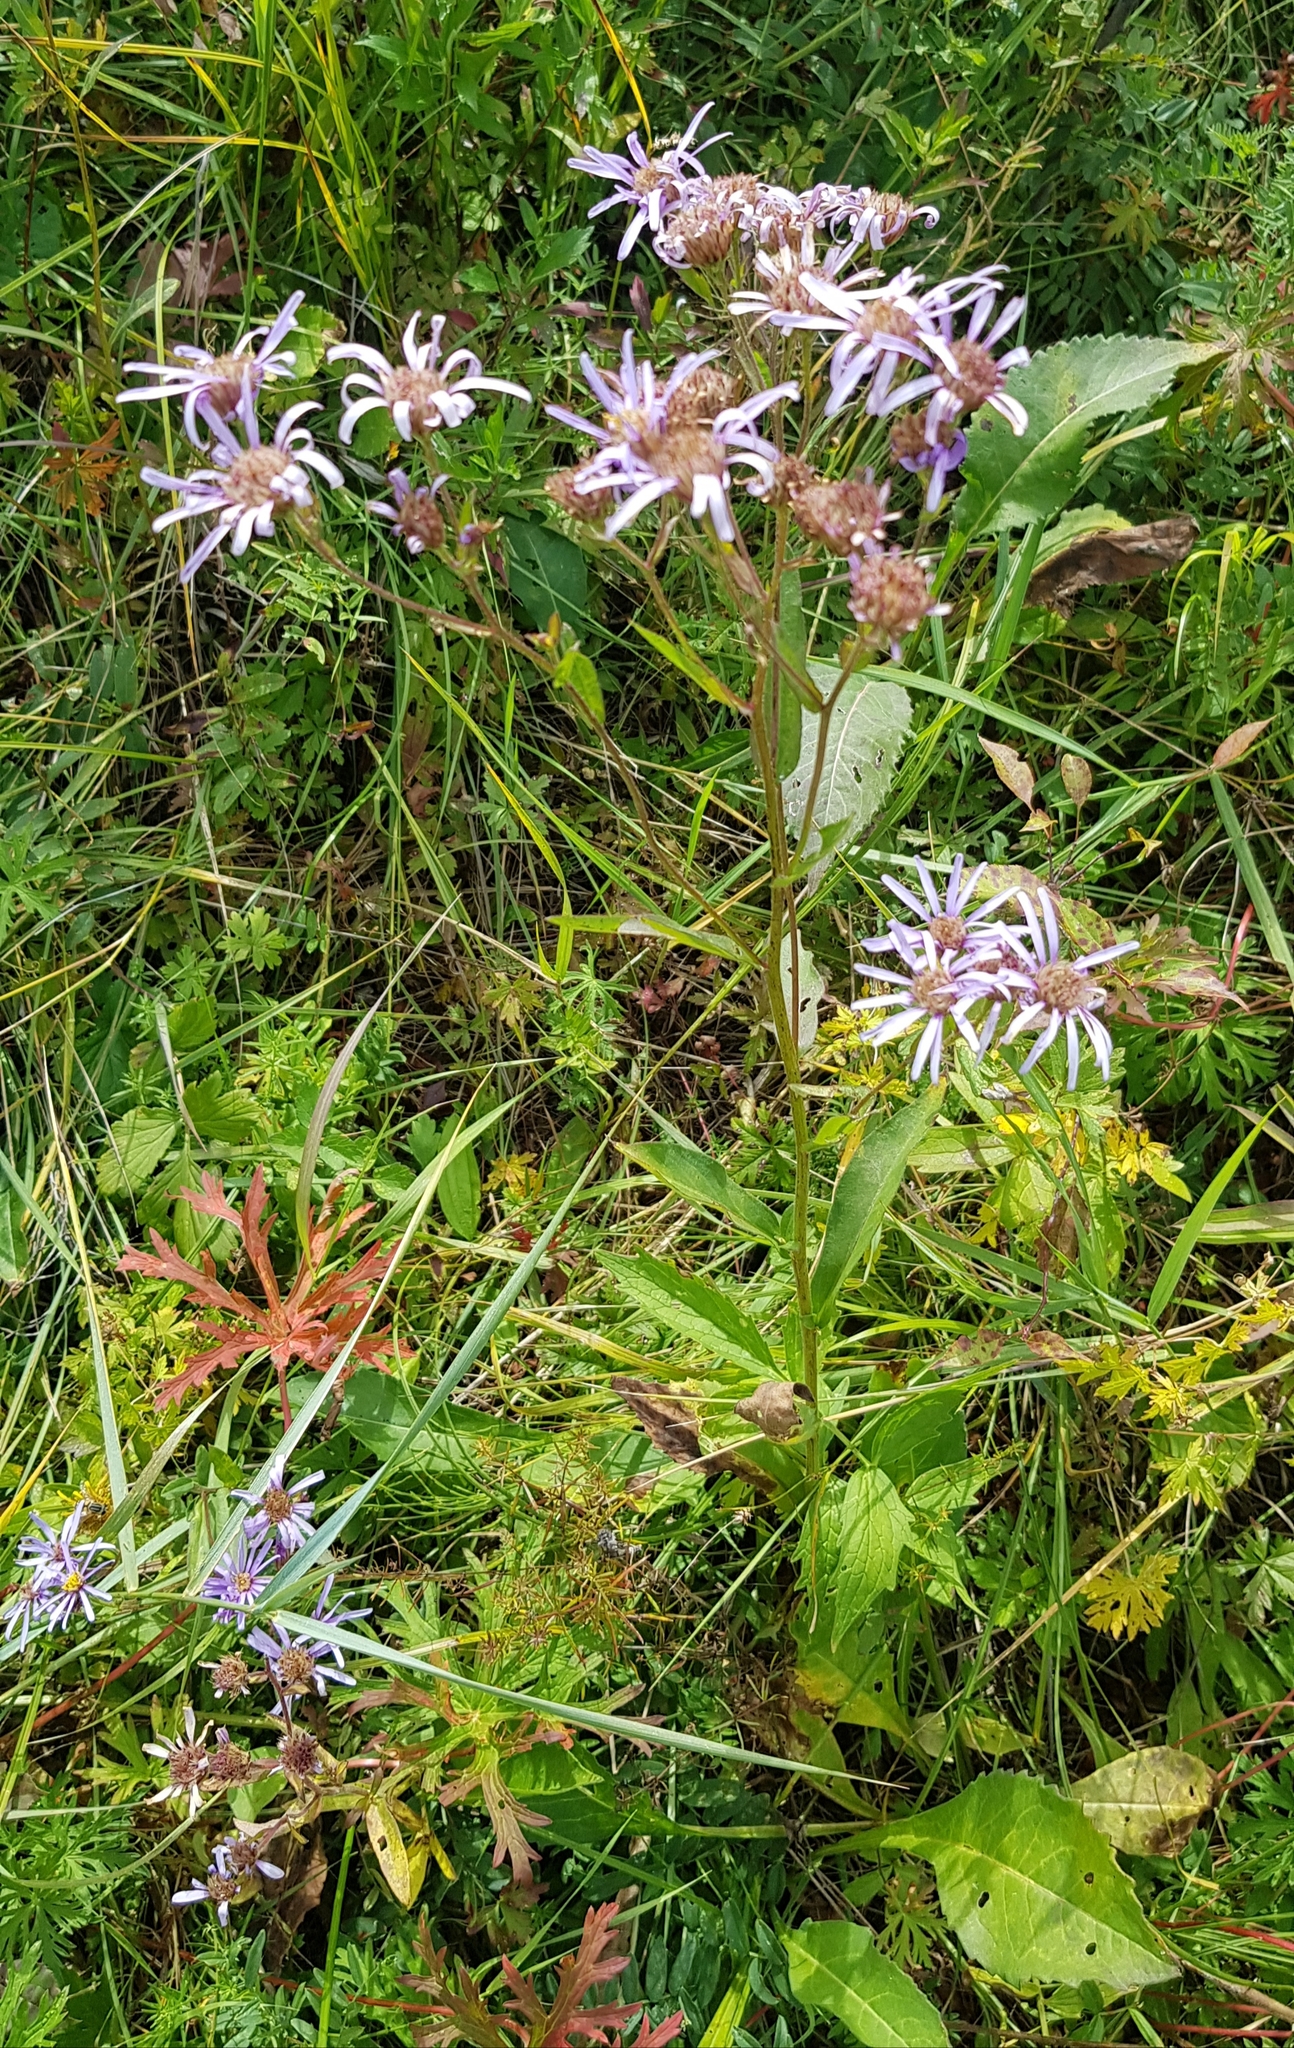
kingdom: Plantae
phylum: Tracheophyta
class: Magnoliopsida
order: Asterales
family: Asteraceae
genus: Aster
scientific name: Aster tataricus
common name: Tatarian aster
